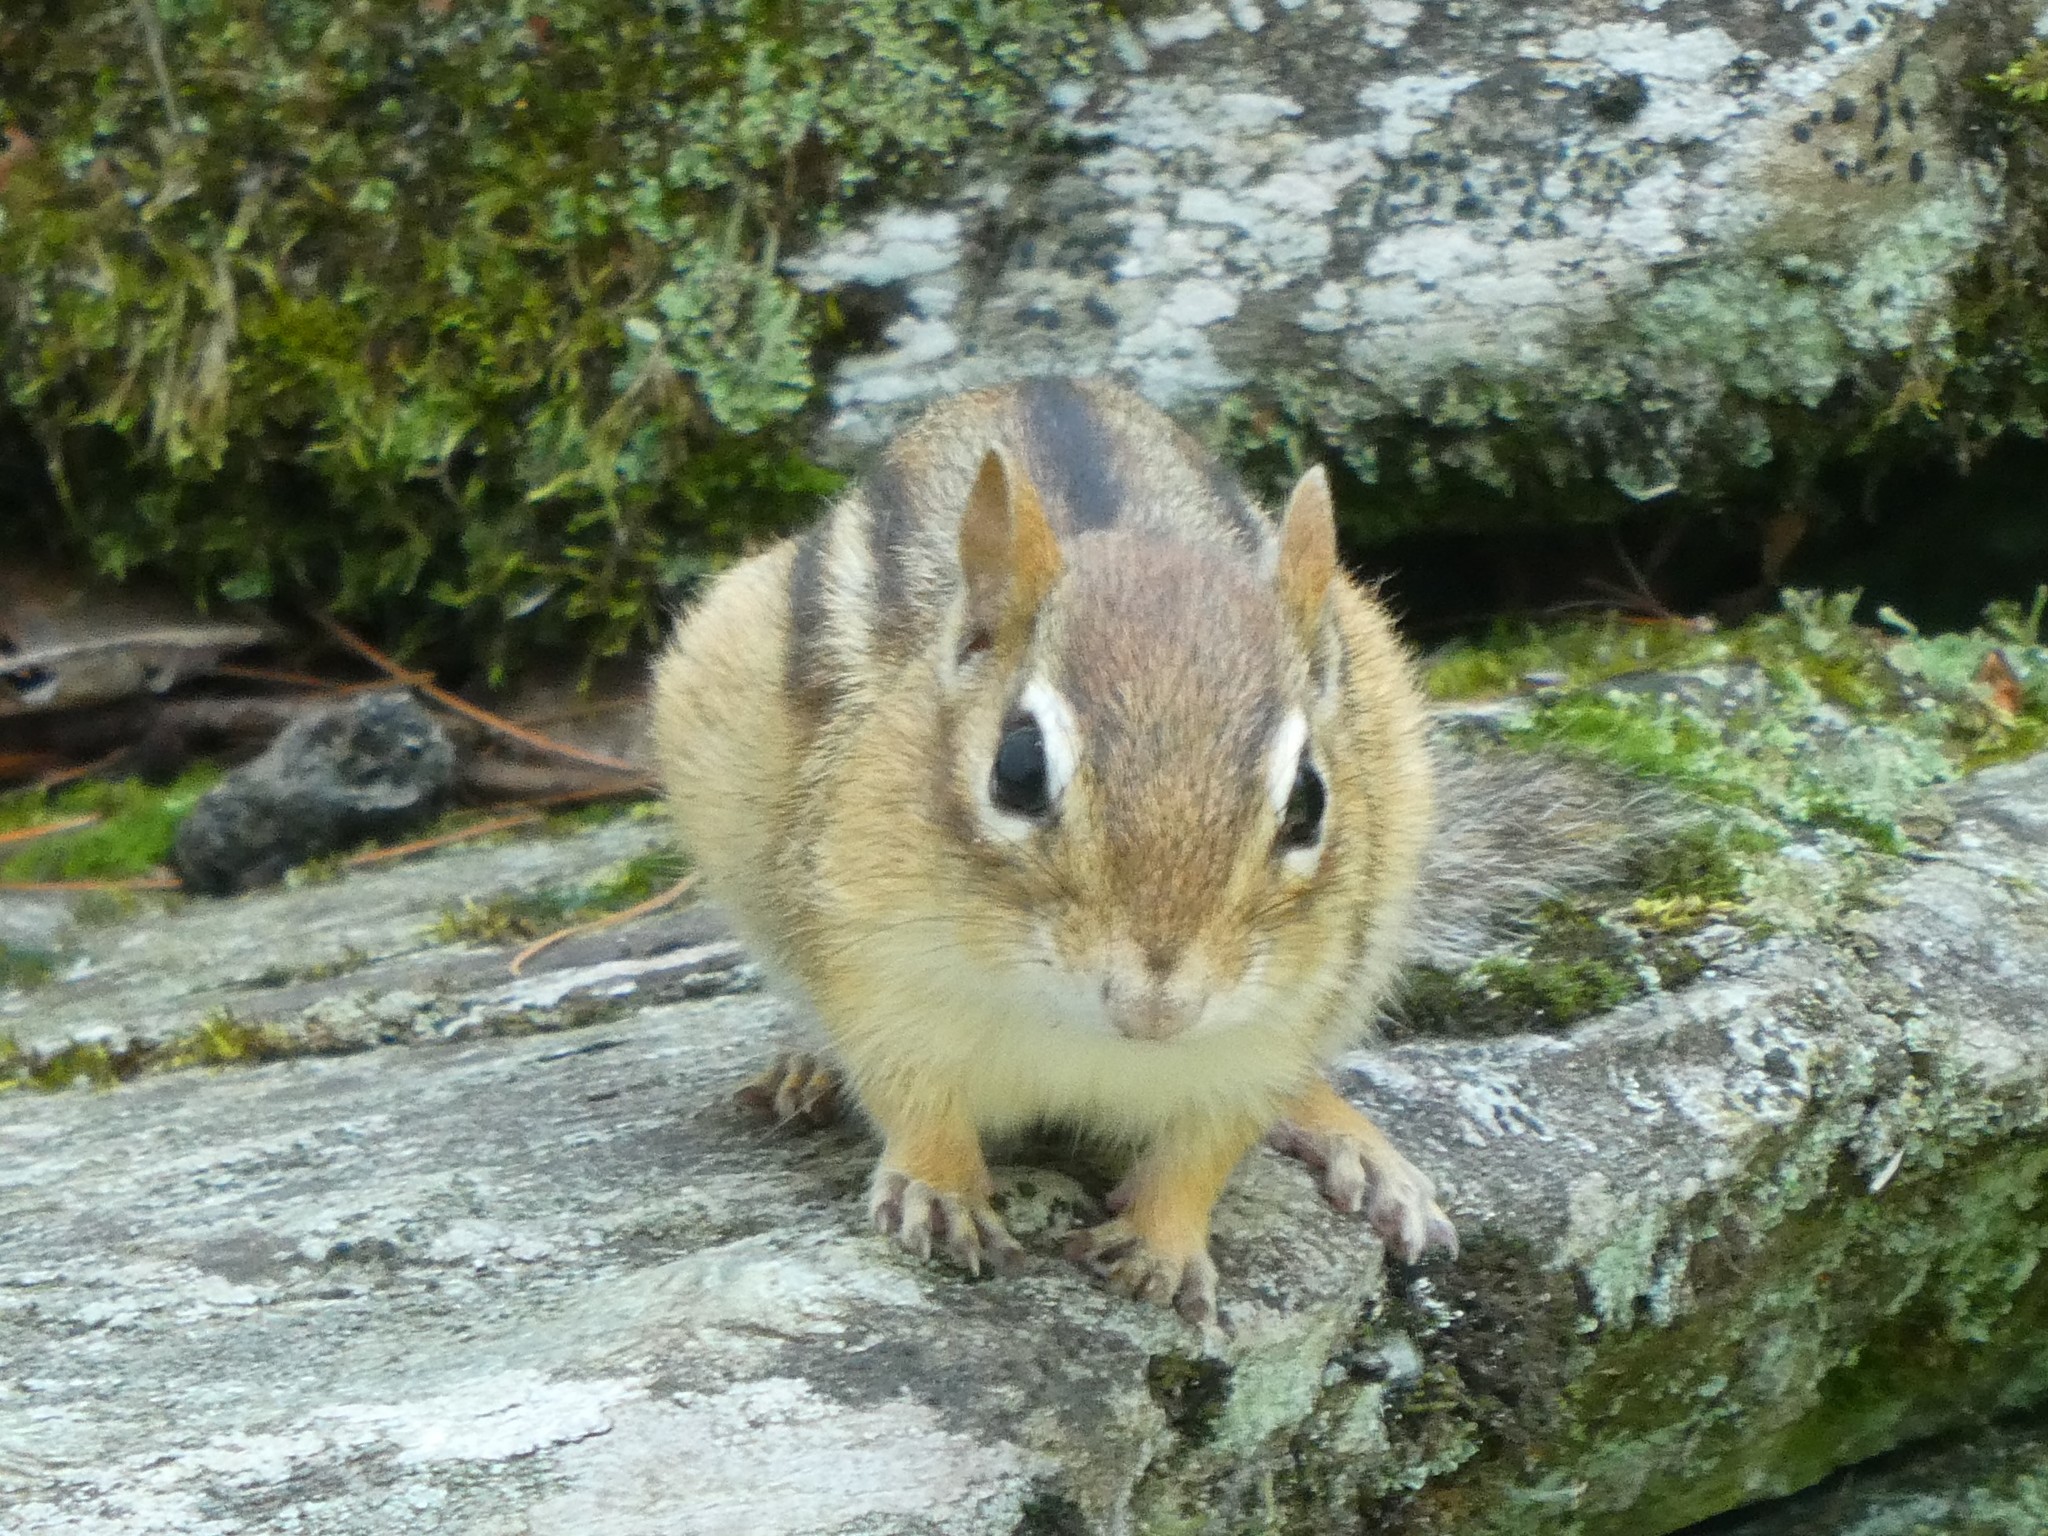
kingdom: Animalia
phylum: Chordata
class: Mammalia
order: Rodentia
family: Sciuridae
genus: Tamias
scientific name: Tamias striatus
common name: Eastern chipmunk
